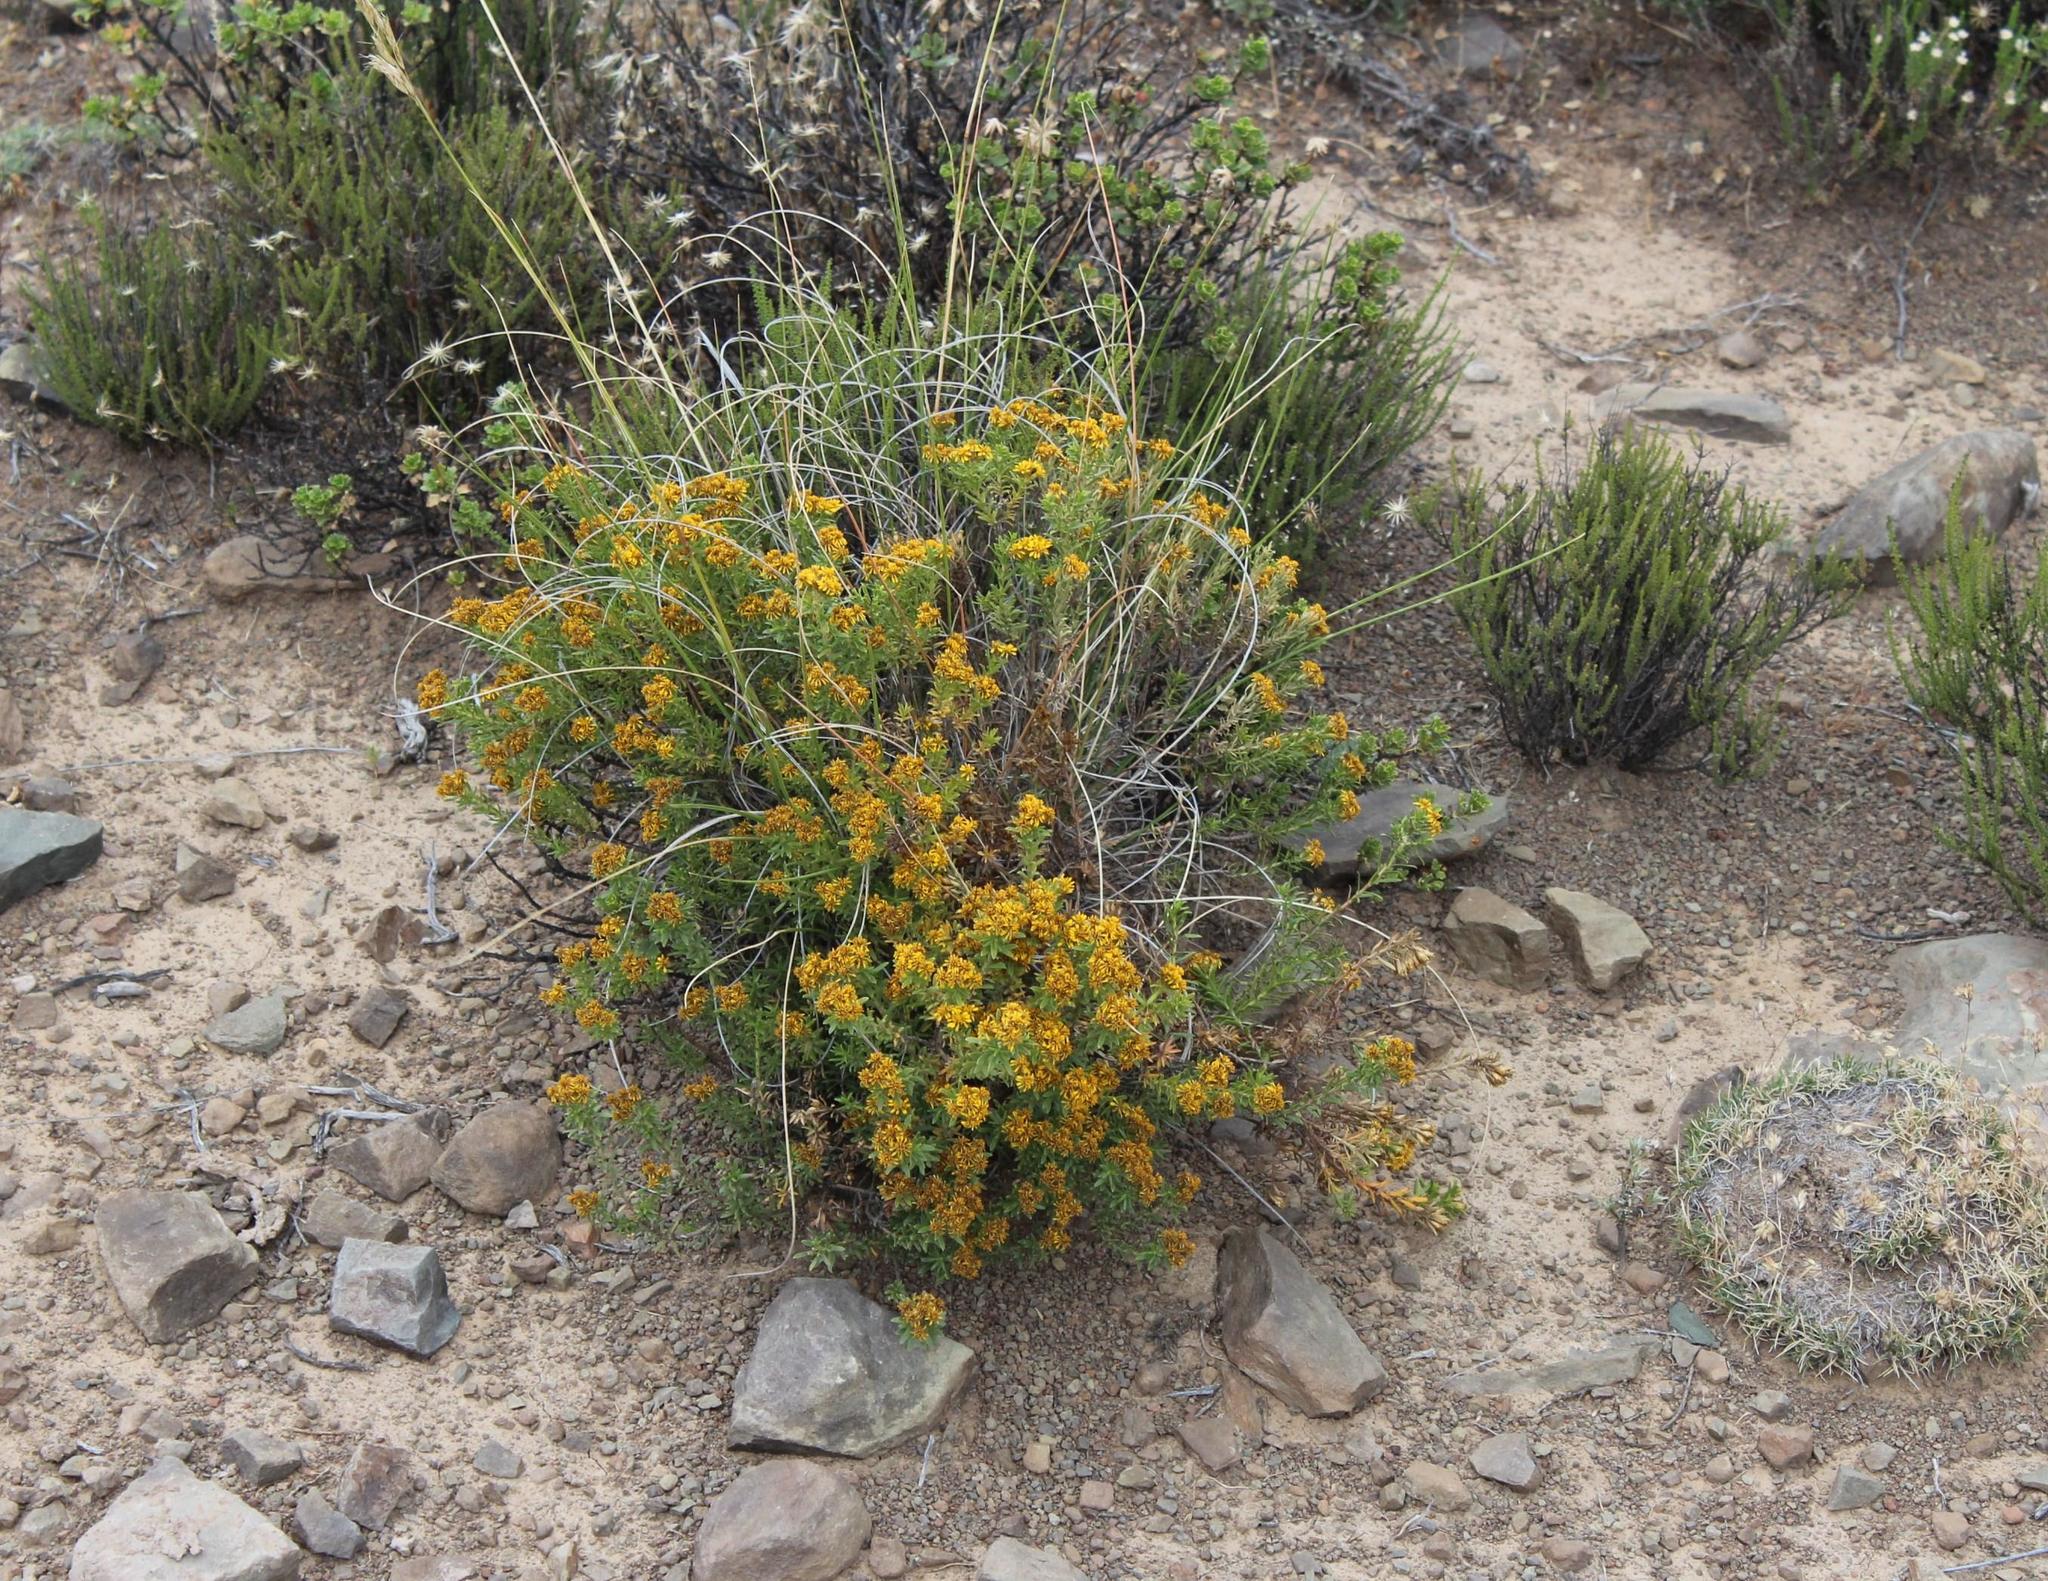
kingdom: Plantae
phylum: Tracheophyta
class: Magnoliopsida
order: Asterales
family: Asteraceae
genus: Oedera
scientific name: Oedera genistifolia
